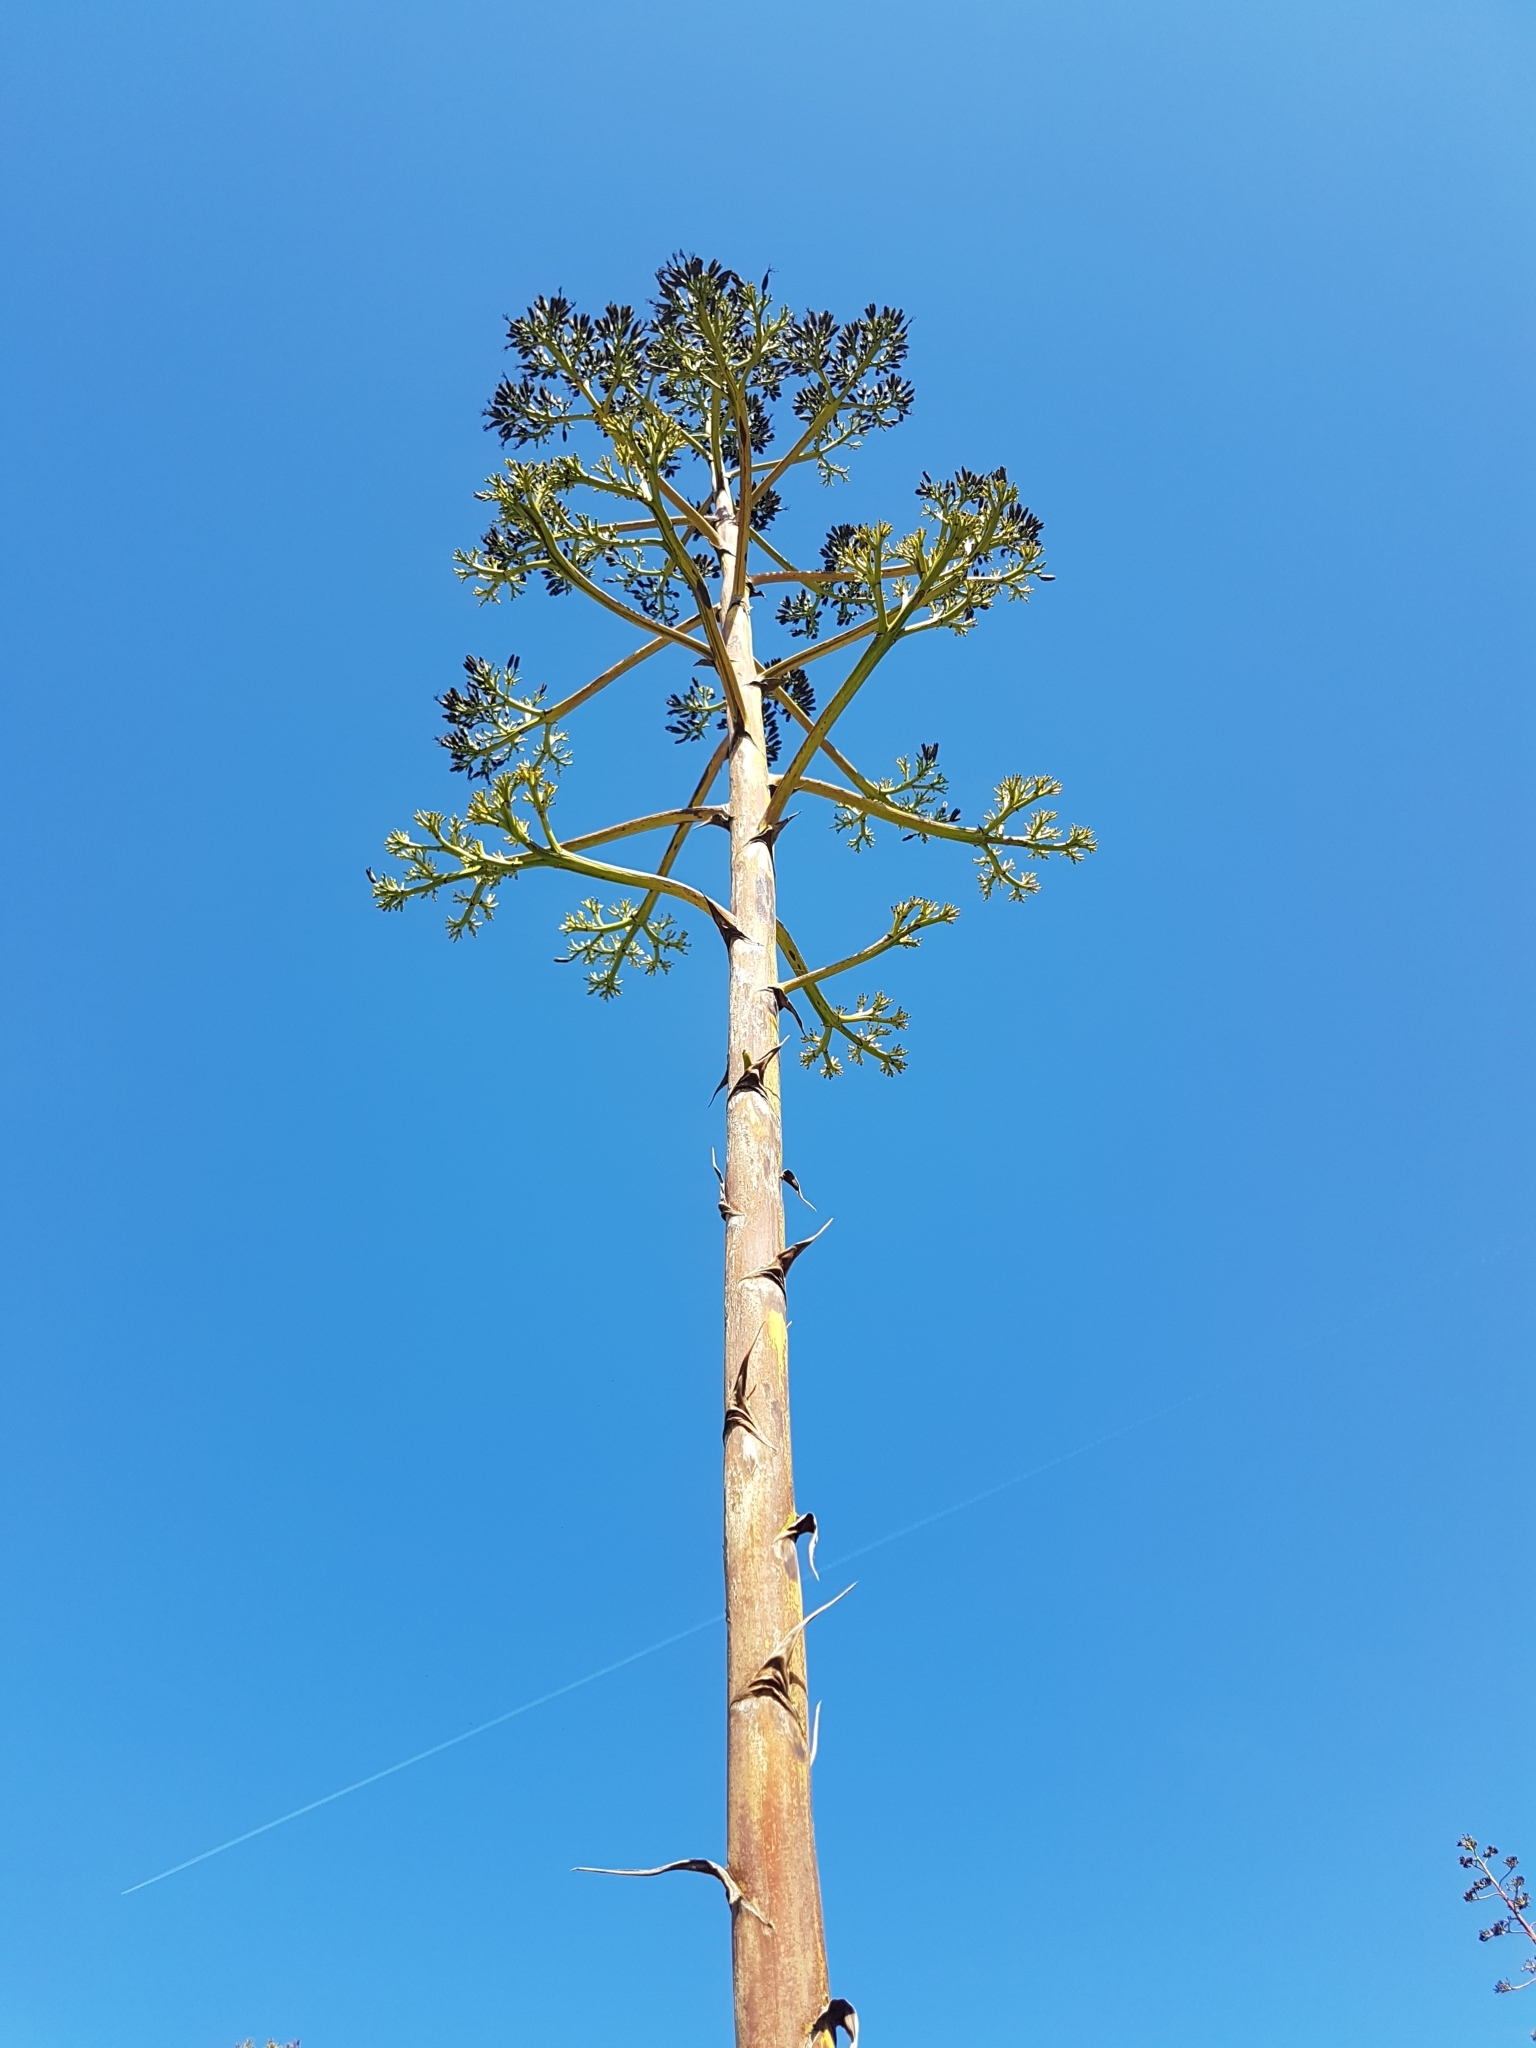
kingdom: Plantae
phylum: Tracheophyta
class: Liliopsida
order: Asparagales
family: Asparagaceae
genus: Agave
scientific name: Agave americana
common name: Centuryplant
